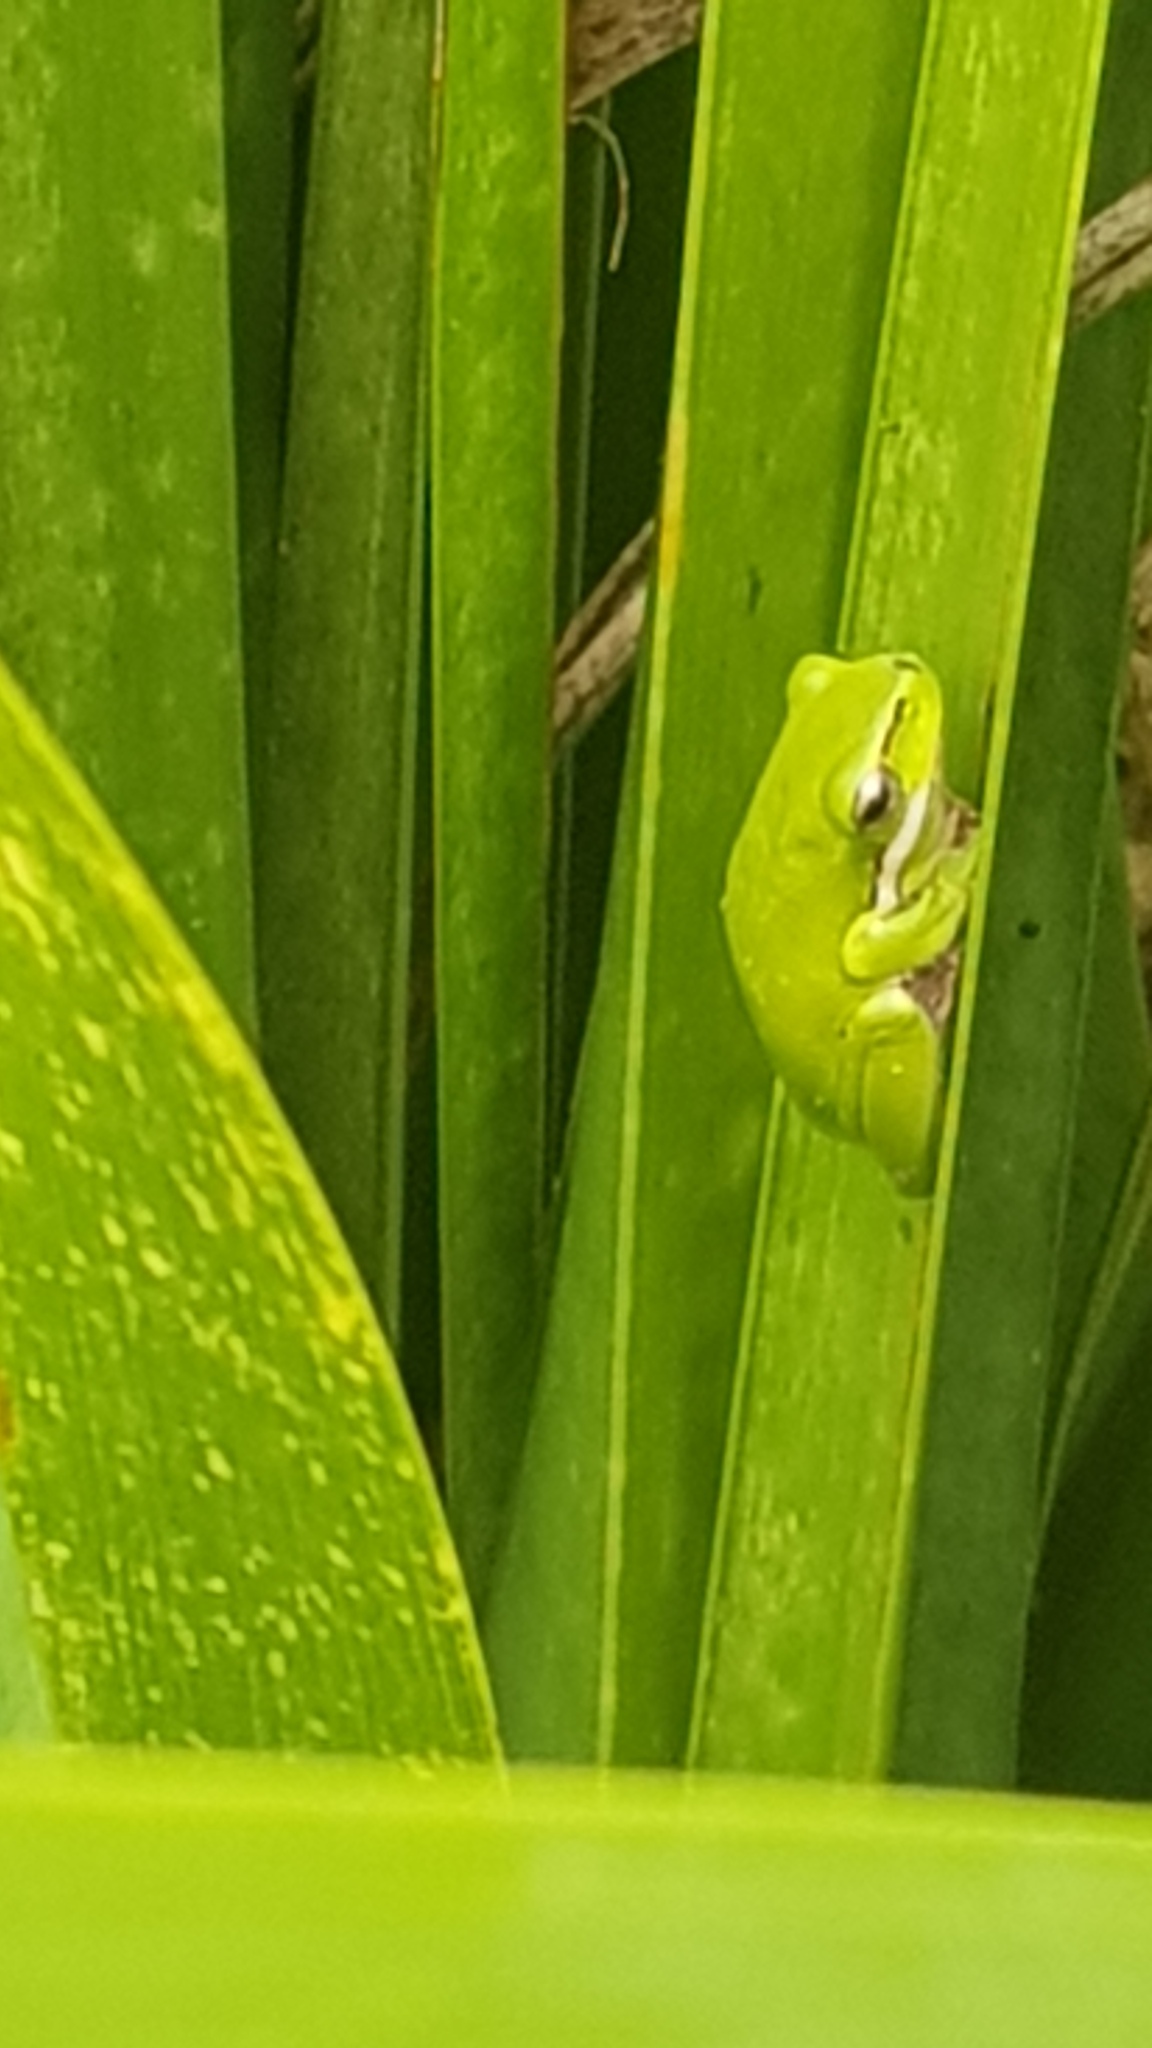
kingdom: Animalia
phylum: Chordata
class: Amphibia
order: Anura
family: Pelodryadidae
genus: Litoria
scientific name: Litoria fallax
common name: Eastern dwarf treefrog
